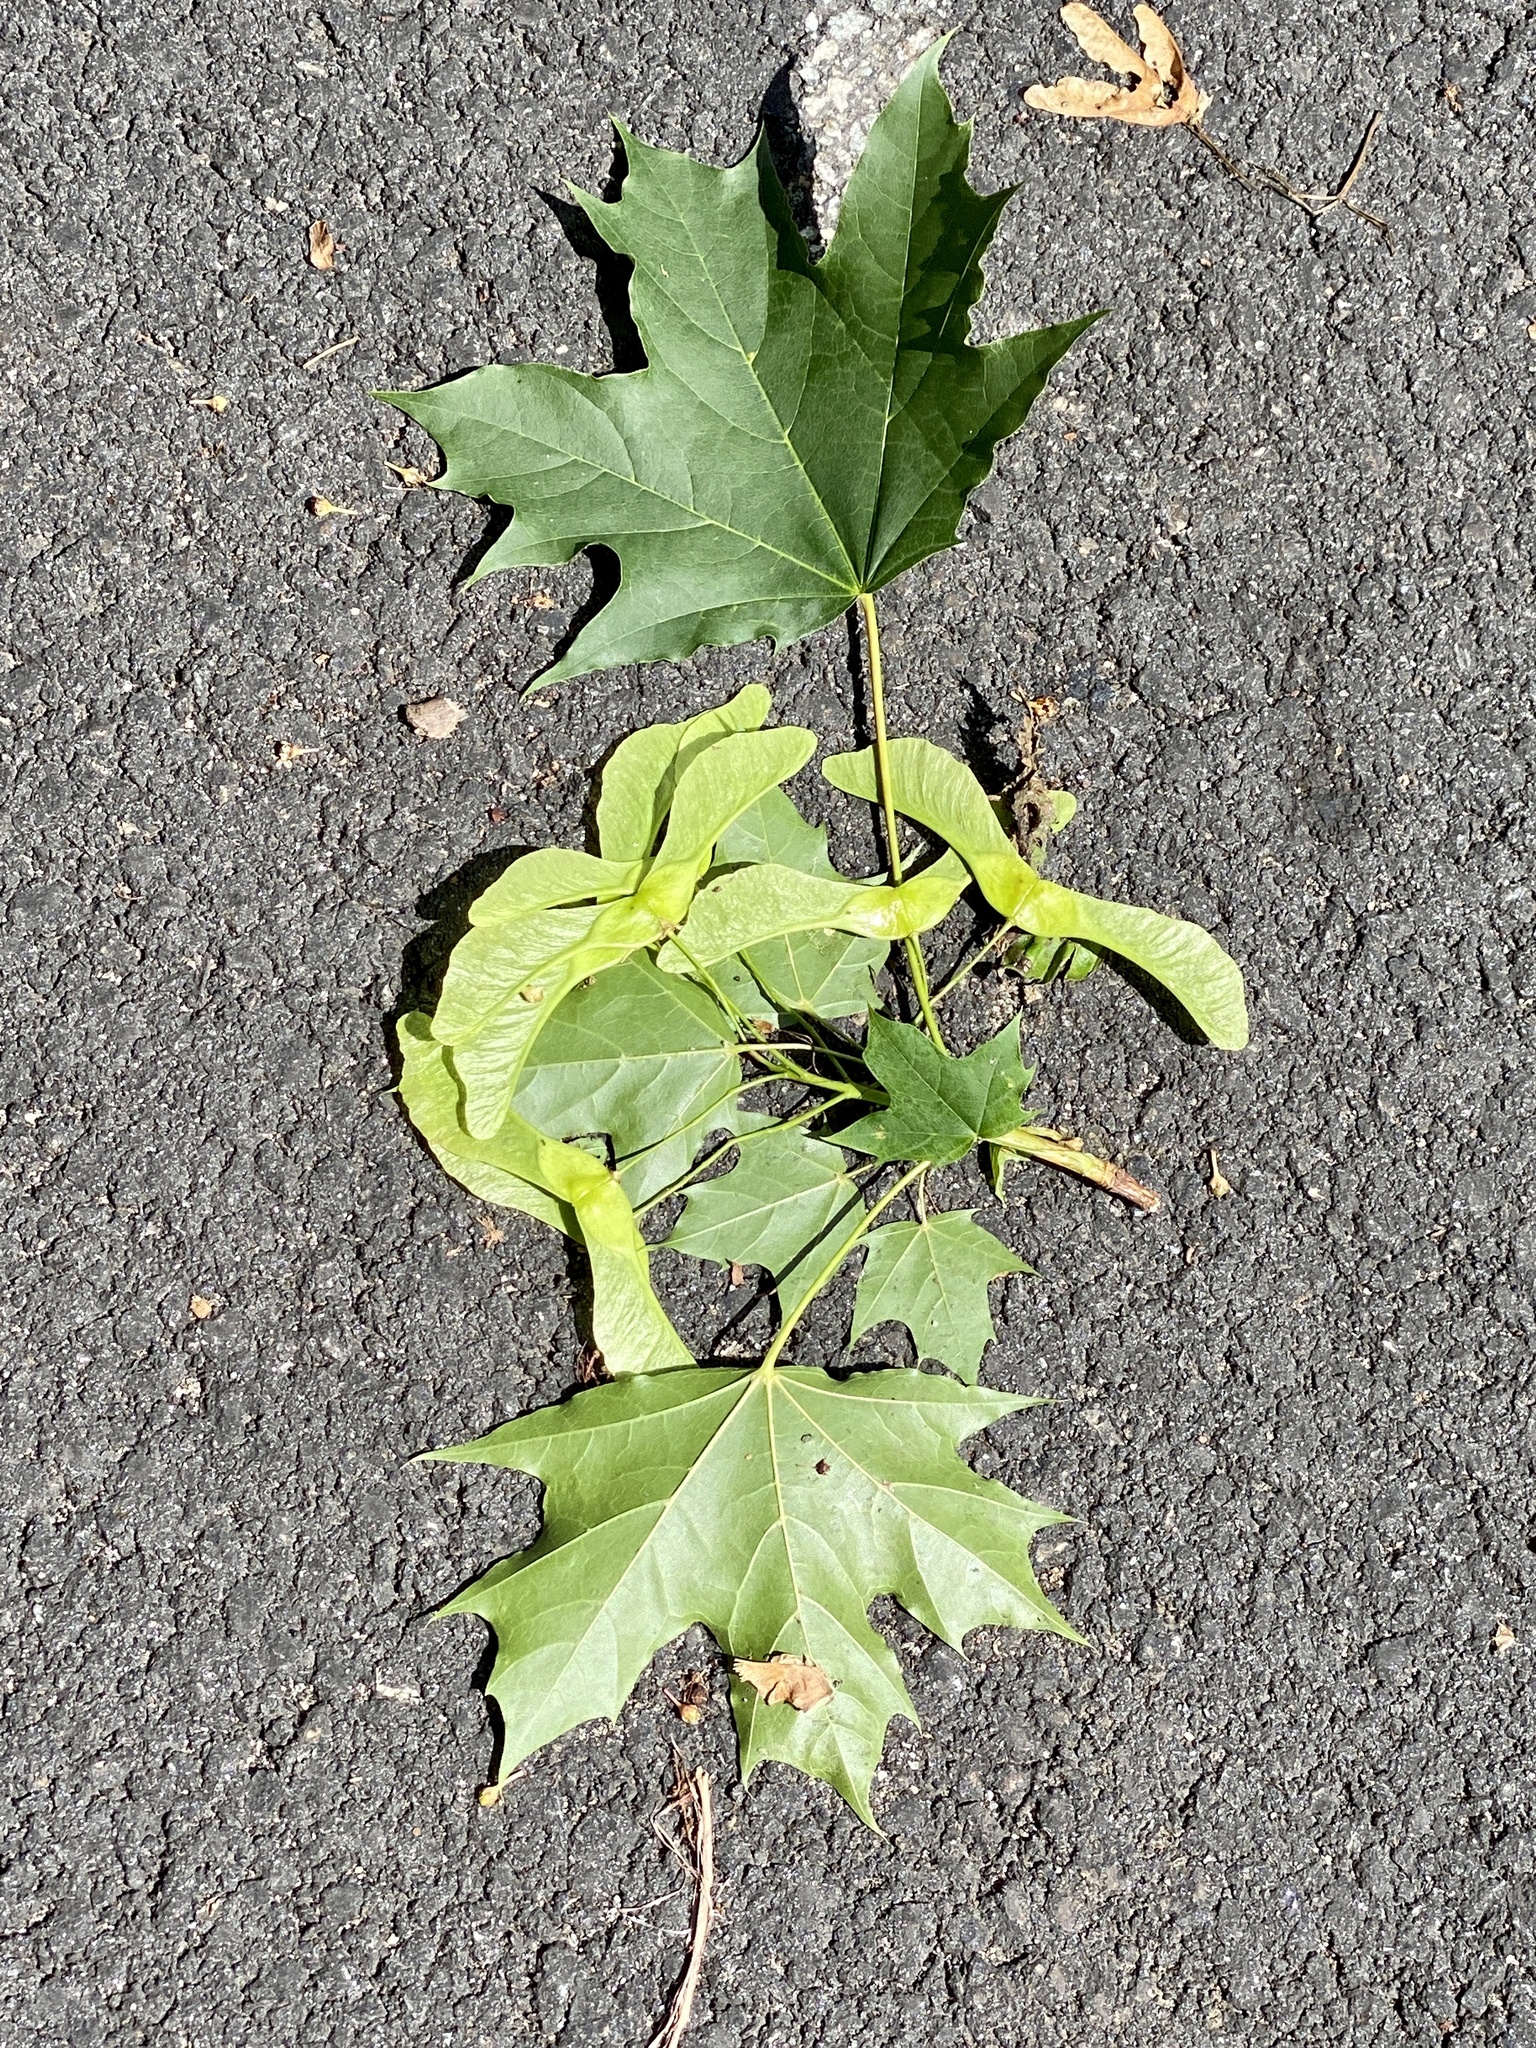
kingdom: Plantae
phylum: Tracheophyta
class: Magnoliopsida
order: Sapindales
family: Sapindaceae
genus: Acer
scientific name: Acer platanoides
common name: Norway maple
